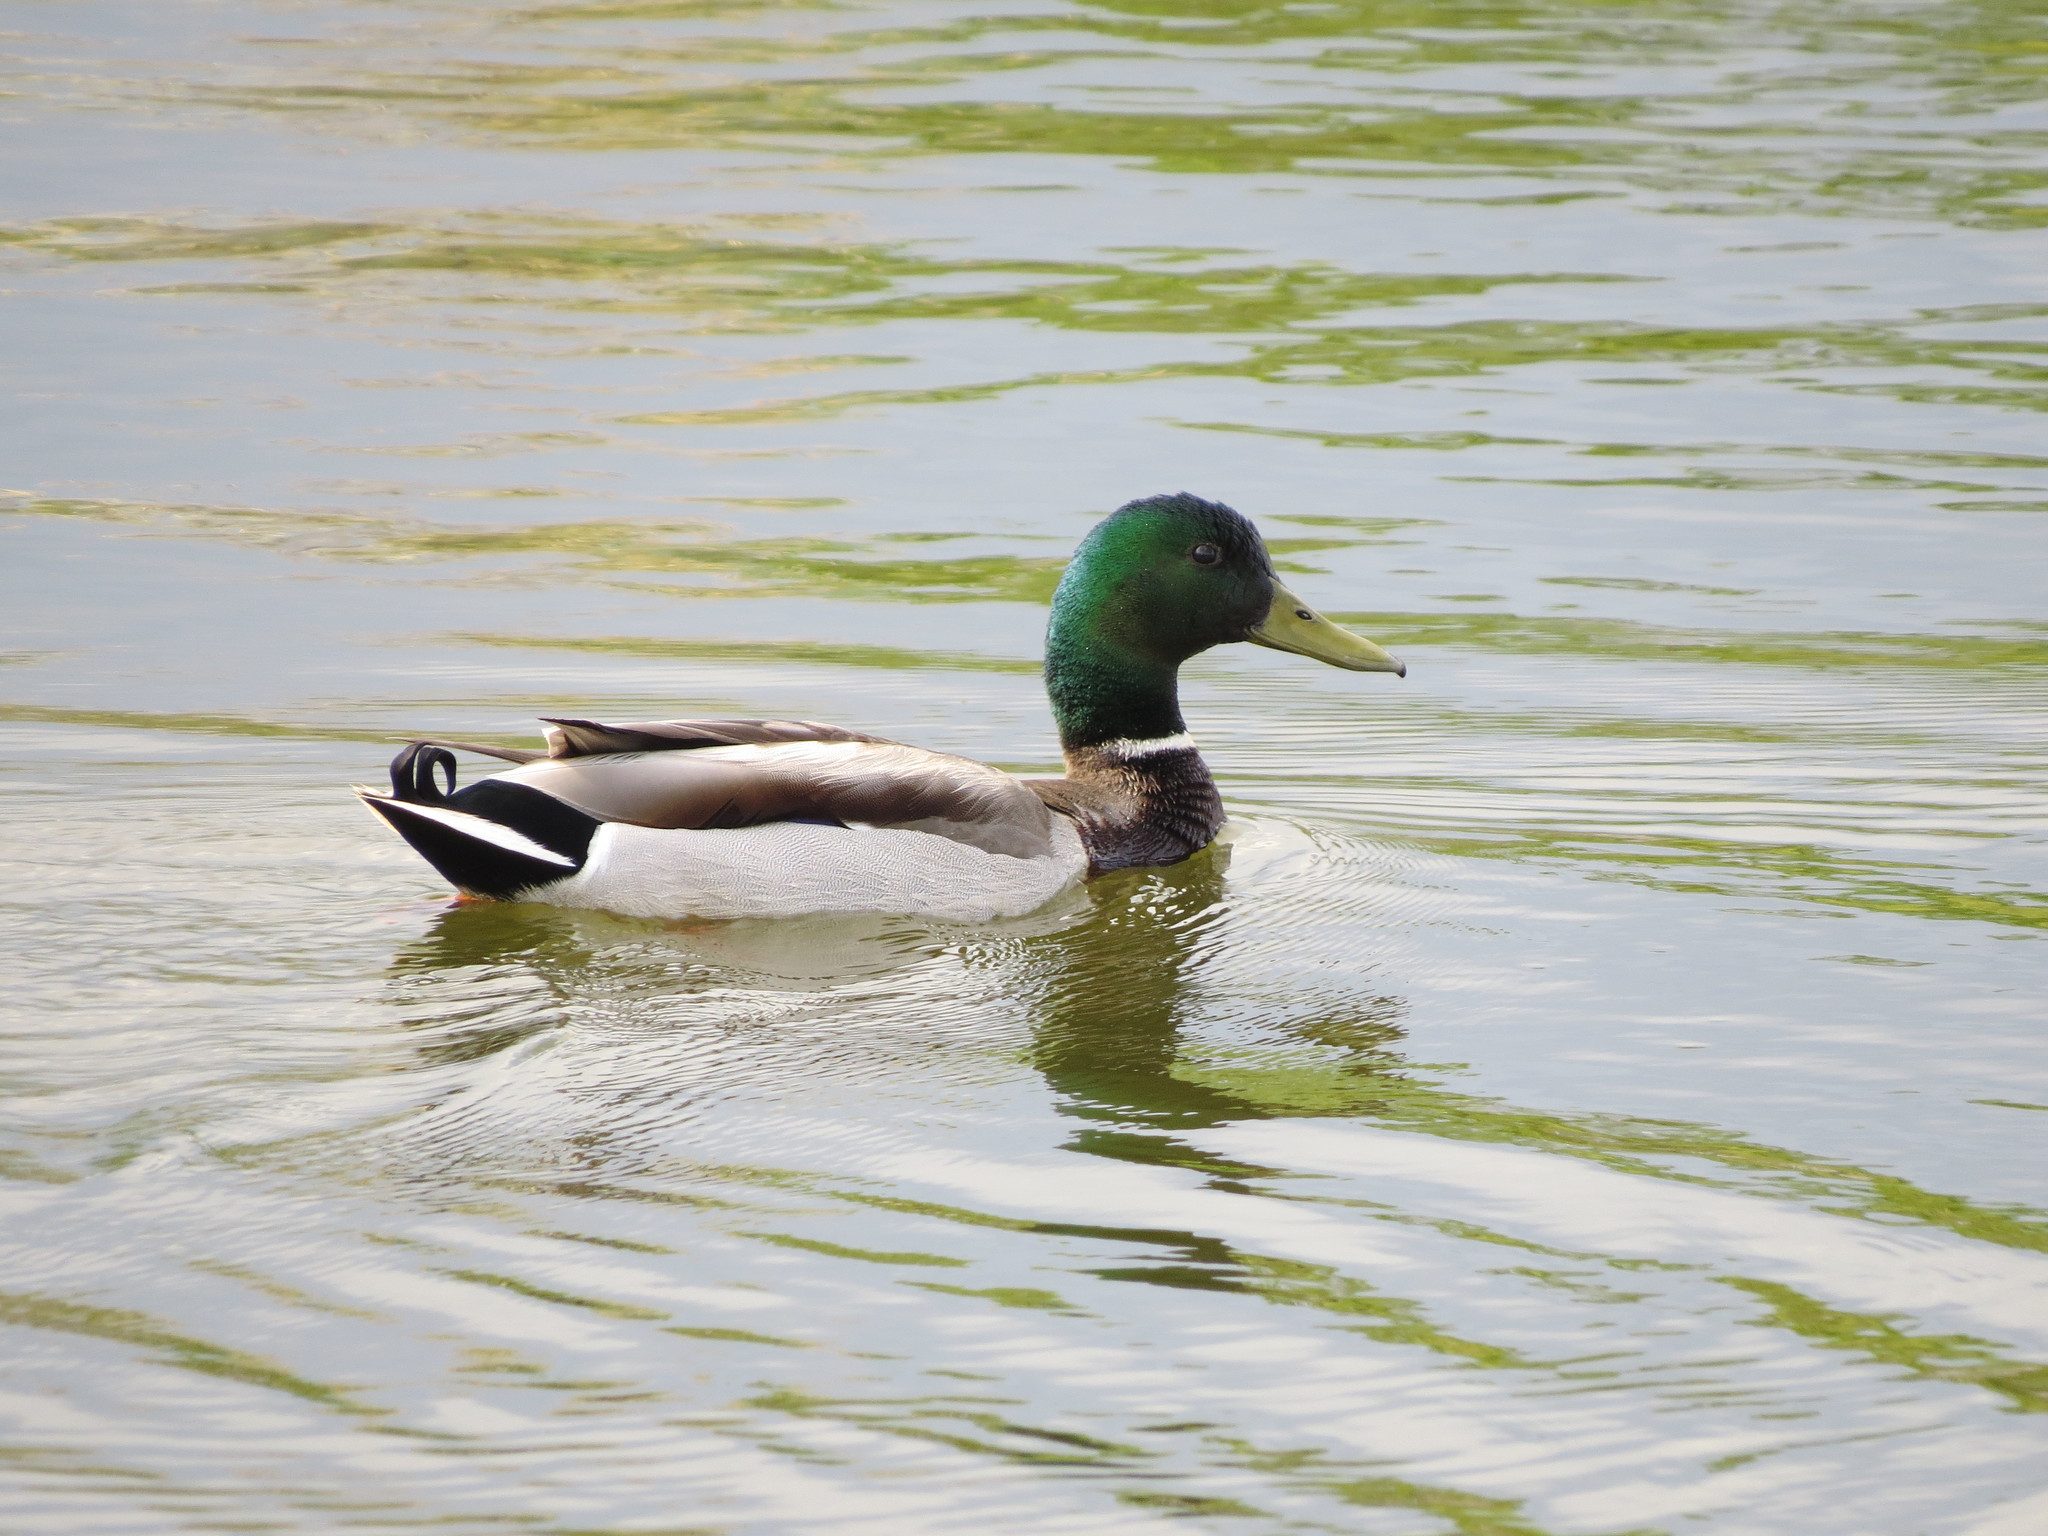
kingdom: Animalia
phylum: Chordata
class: Aves
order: Anseriformes
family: Anatidae
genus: Anas
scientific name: Anas platyrhynchos
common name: Mallard
